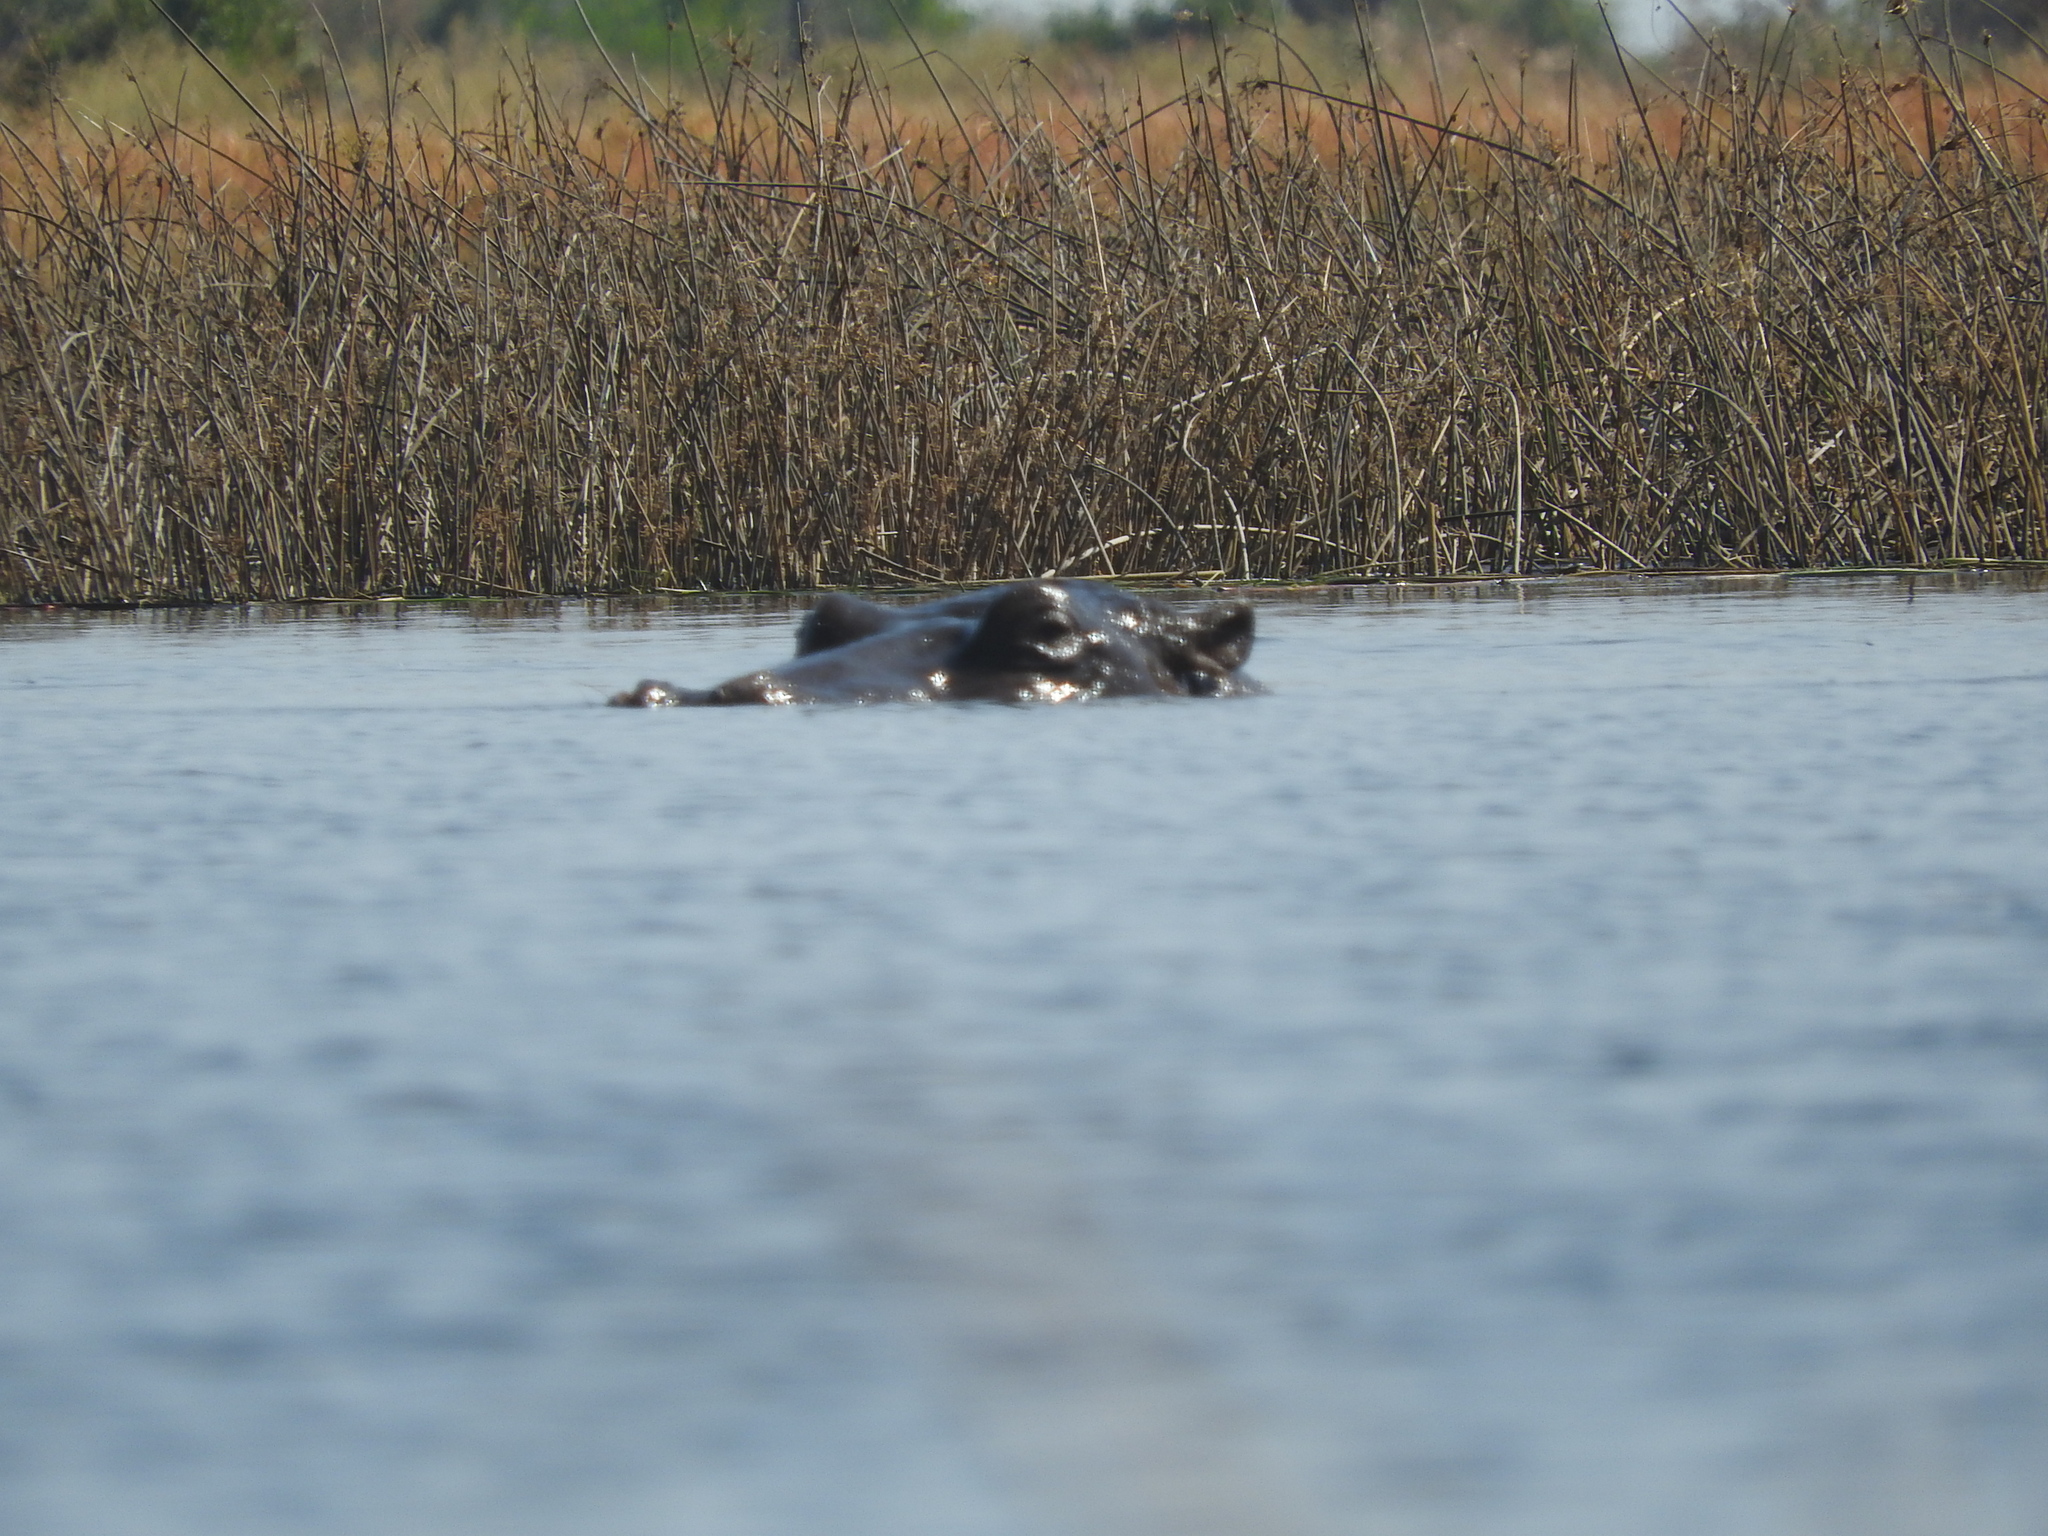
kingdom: Animalia
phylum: Chordata
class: Mammalia
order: Artiodactyla
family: Hippopotamidae
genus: Hippopotamus
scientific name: Hippopotamus amphibius
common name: Common hippopotamus
